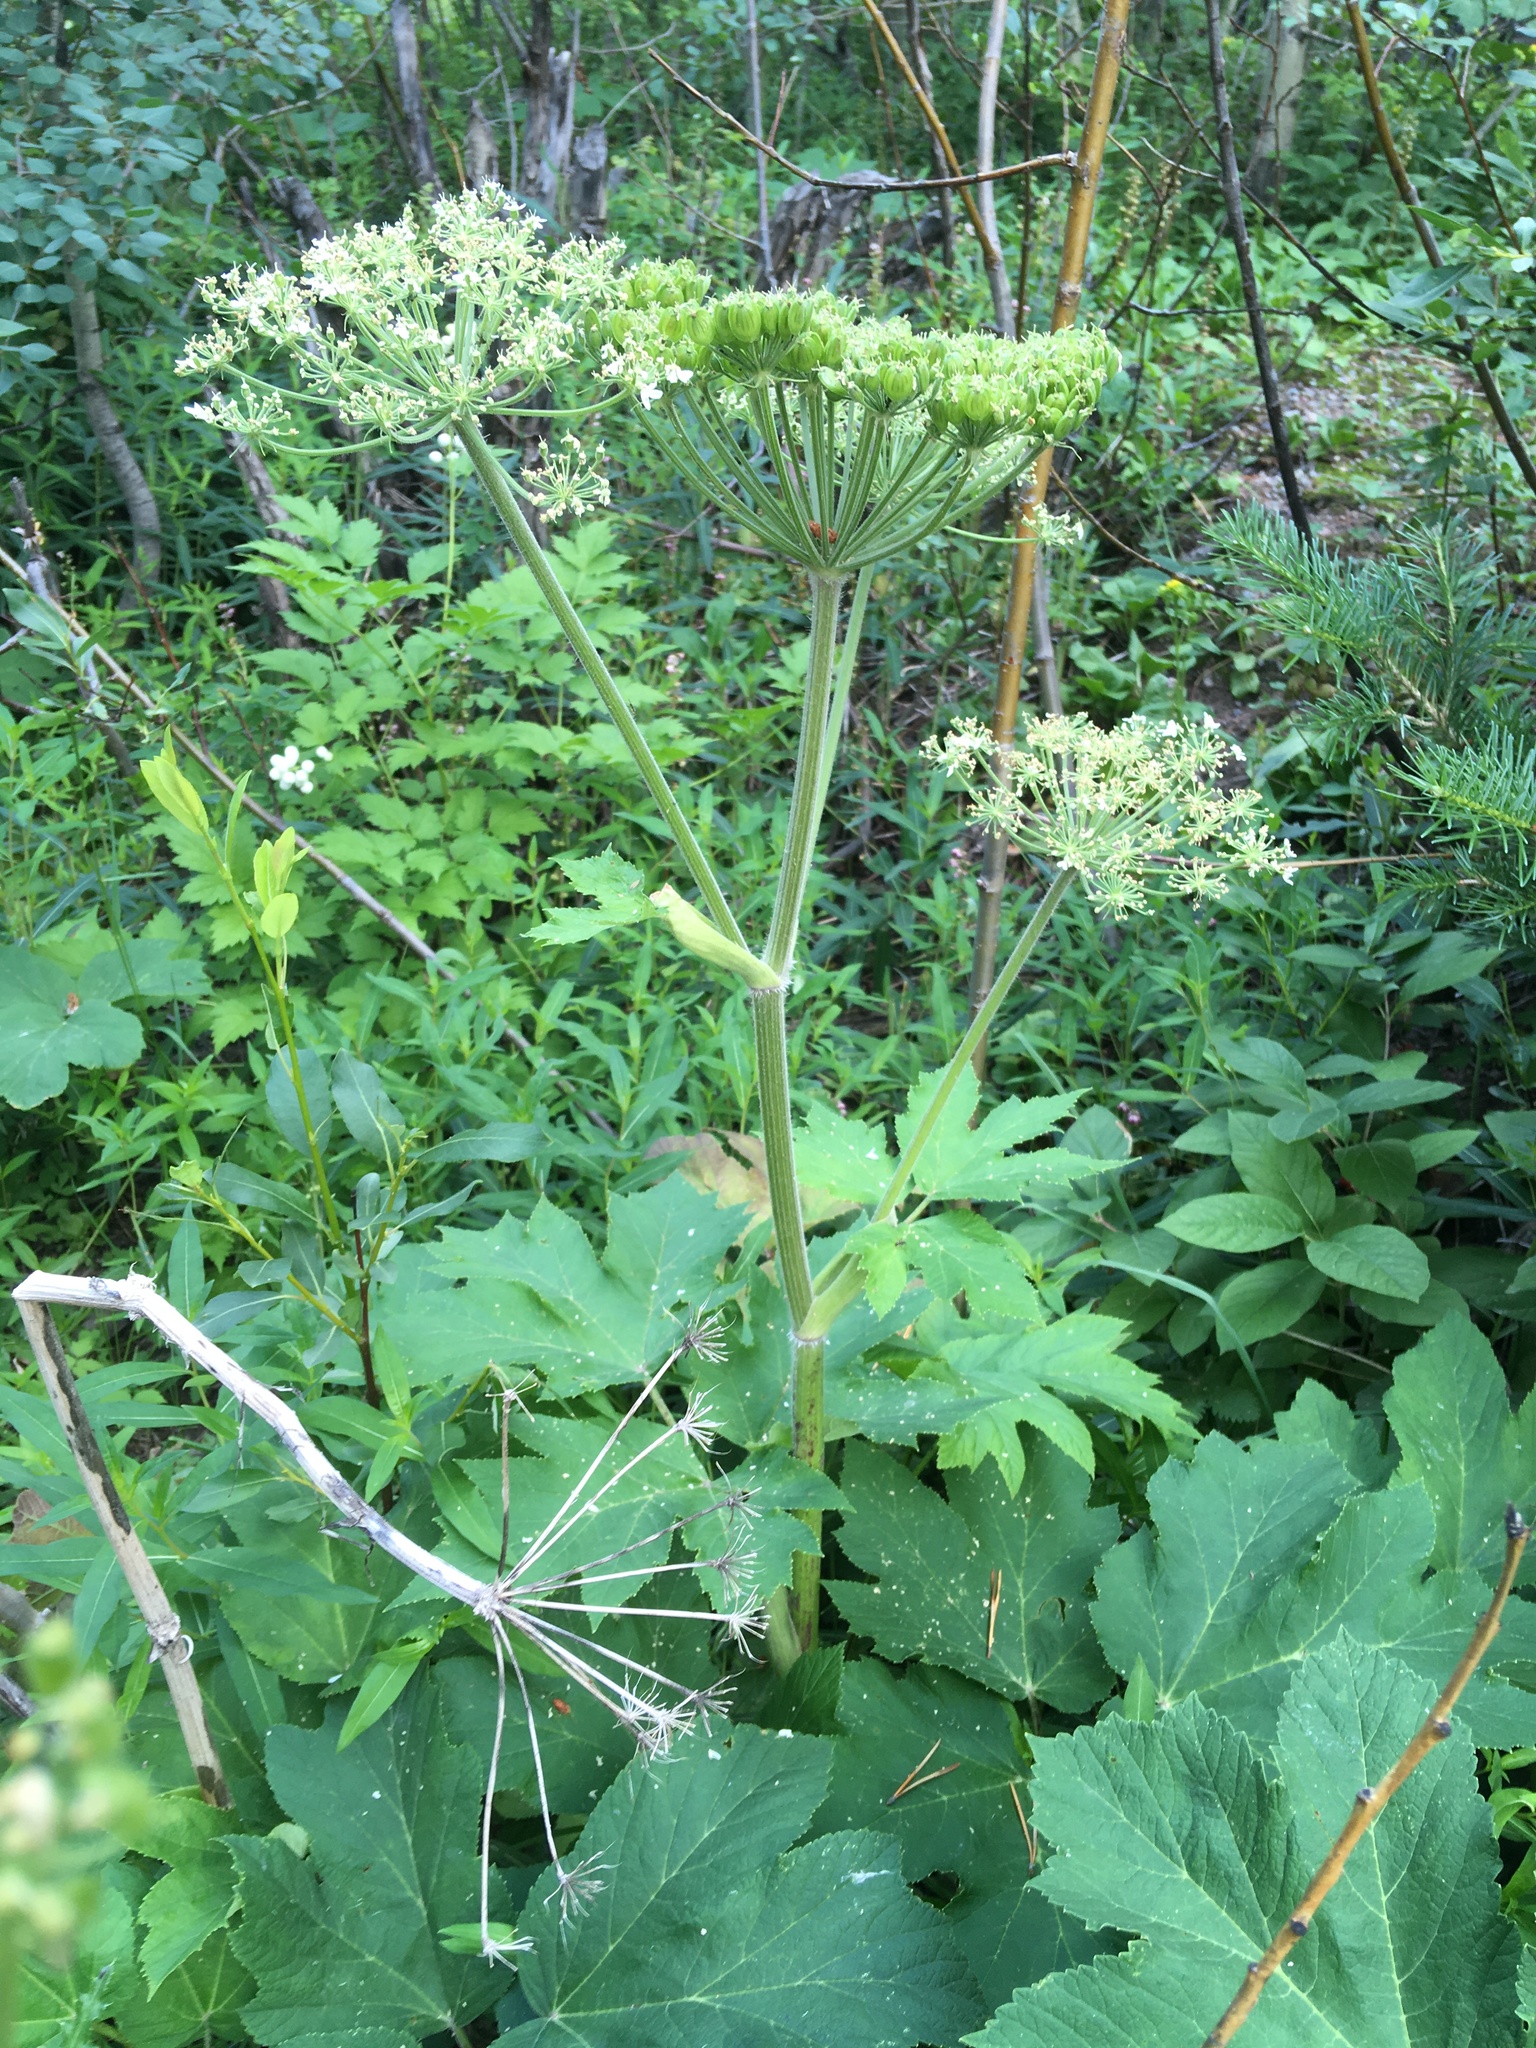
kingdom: Plantae
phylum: Tracheophyta
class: Magnoliopsida
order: Apiales
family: Apiaceae
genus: Heracleum
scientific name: Heracleum maximum
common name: American cow parsnip
